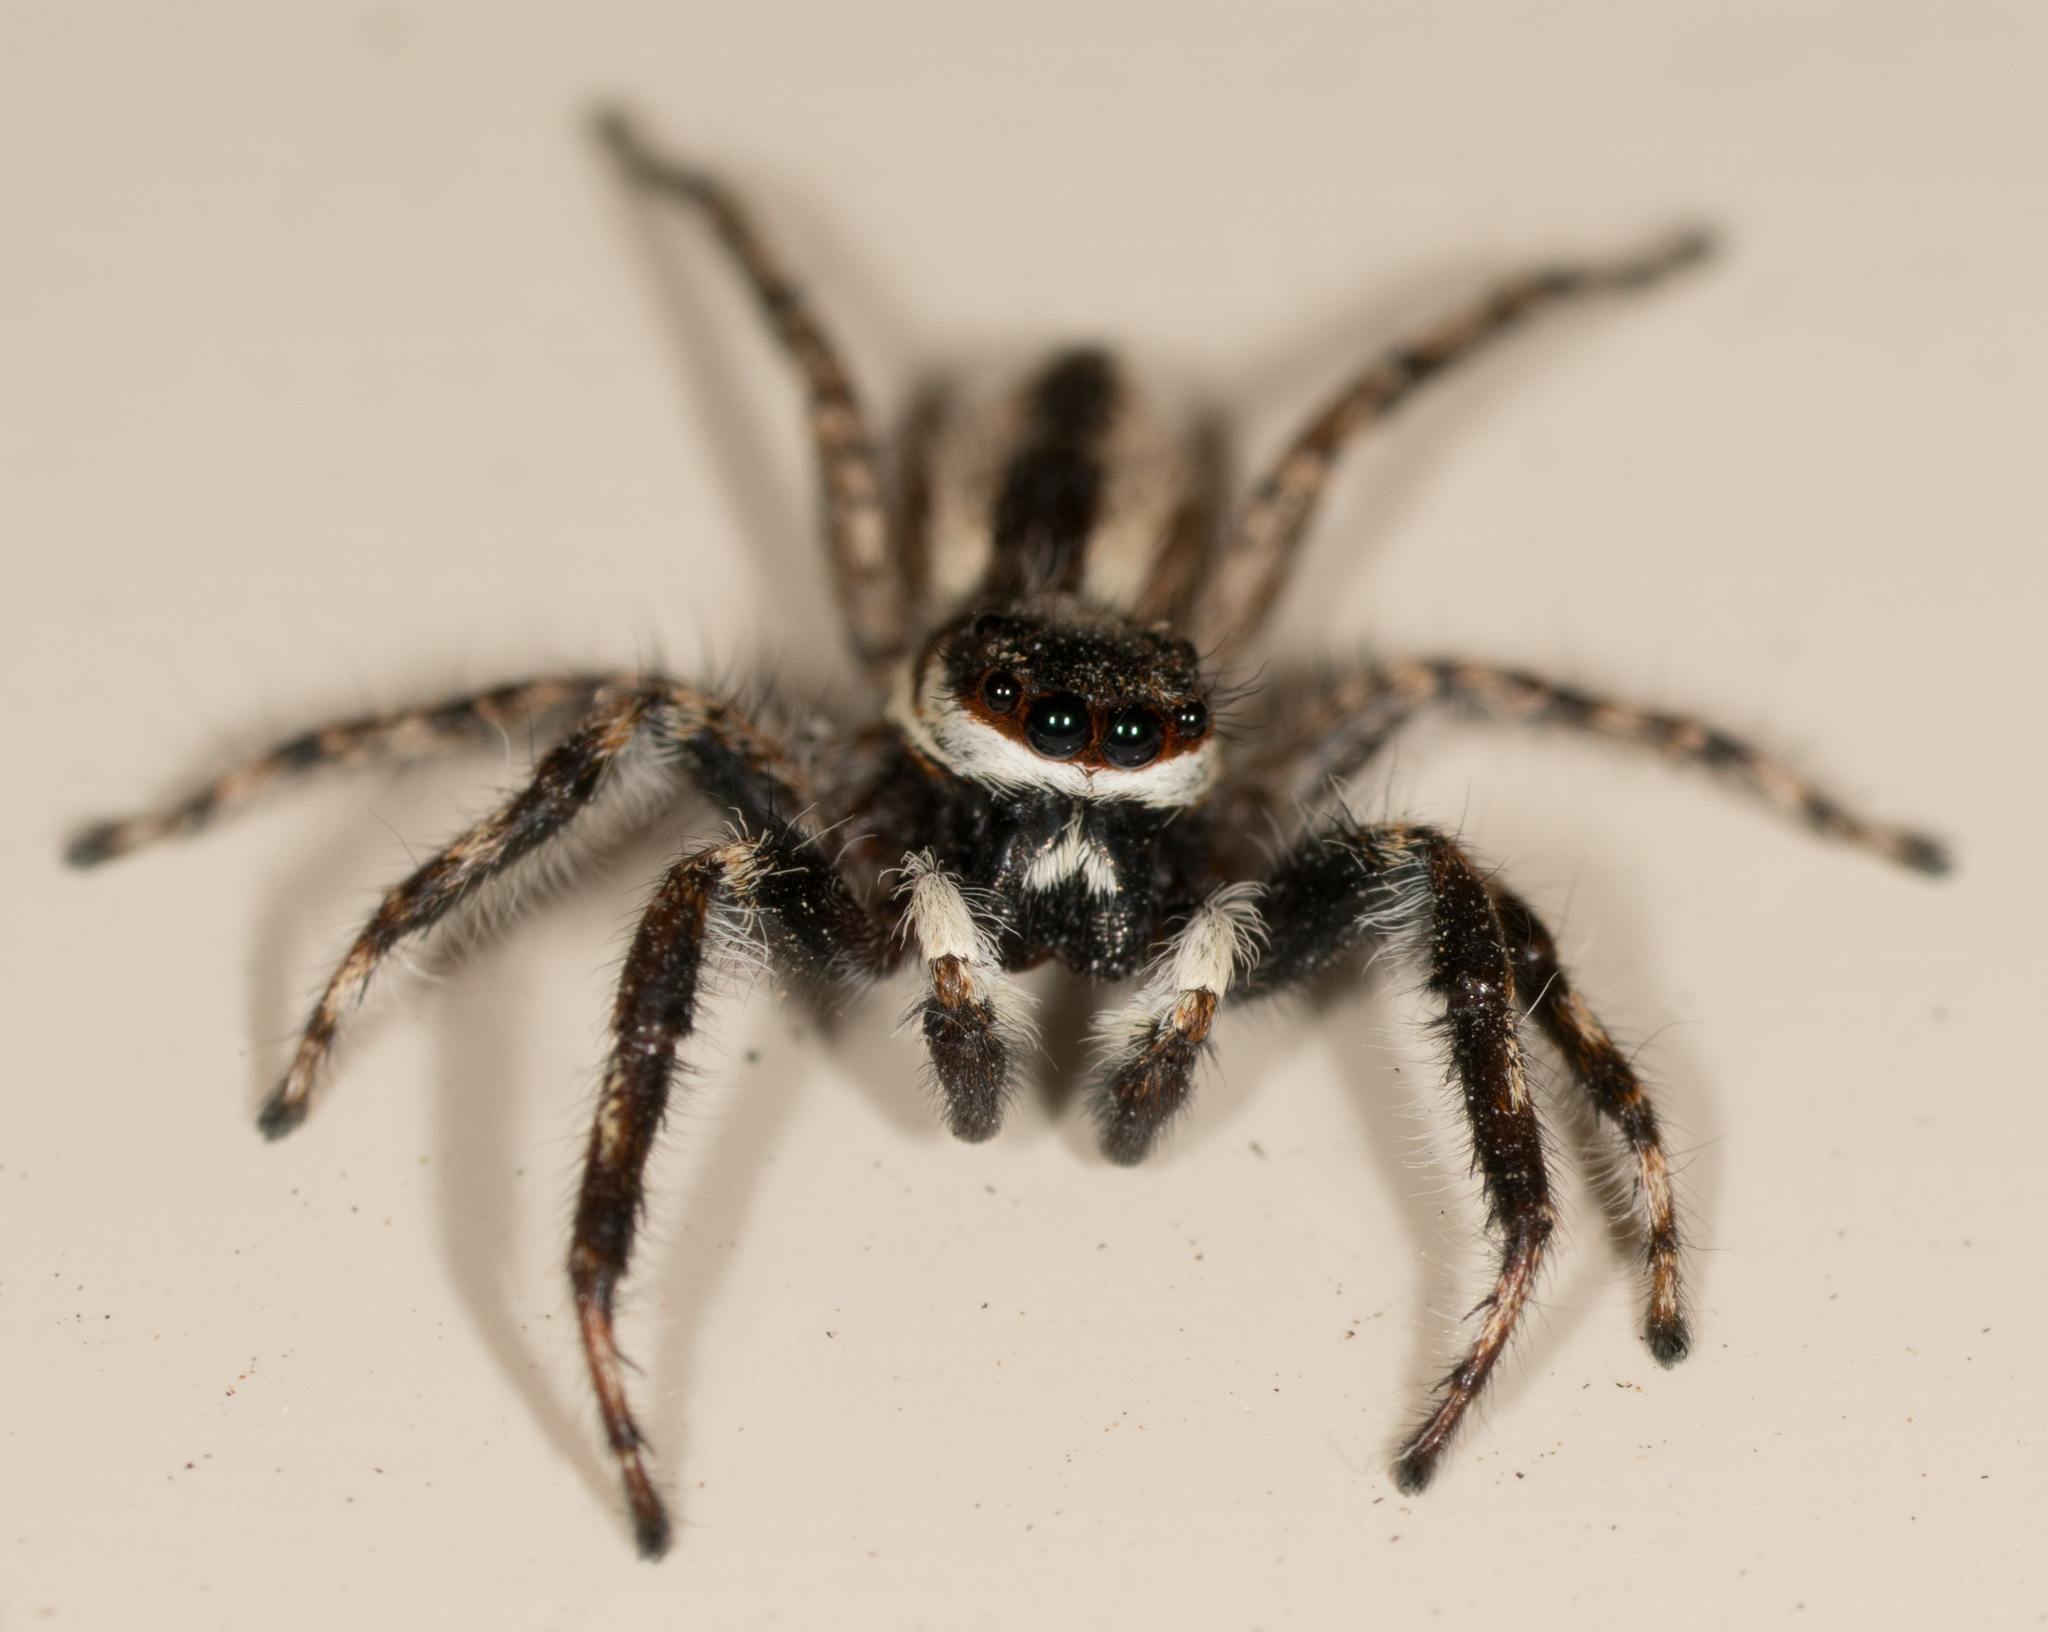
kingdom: Animalia
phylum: Arthropoda
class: Arachnida
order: Araneae
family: Salticidae
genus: Menemerus
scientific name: Menemerus bivittatus
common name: Gray wall jumper
